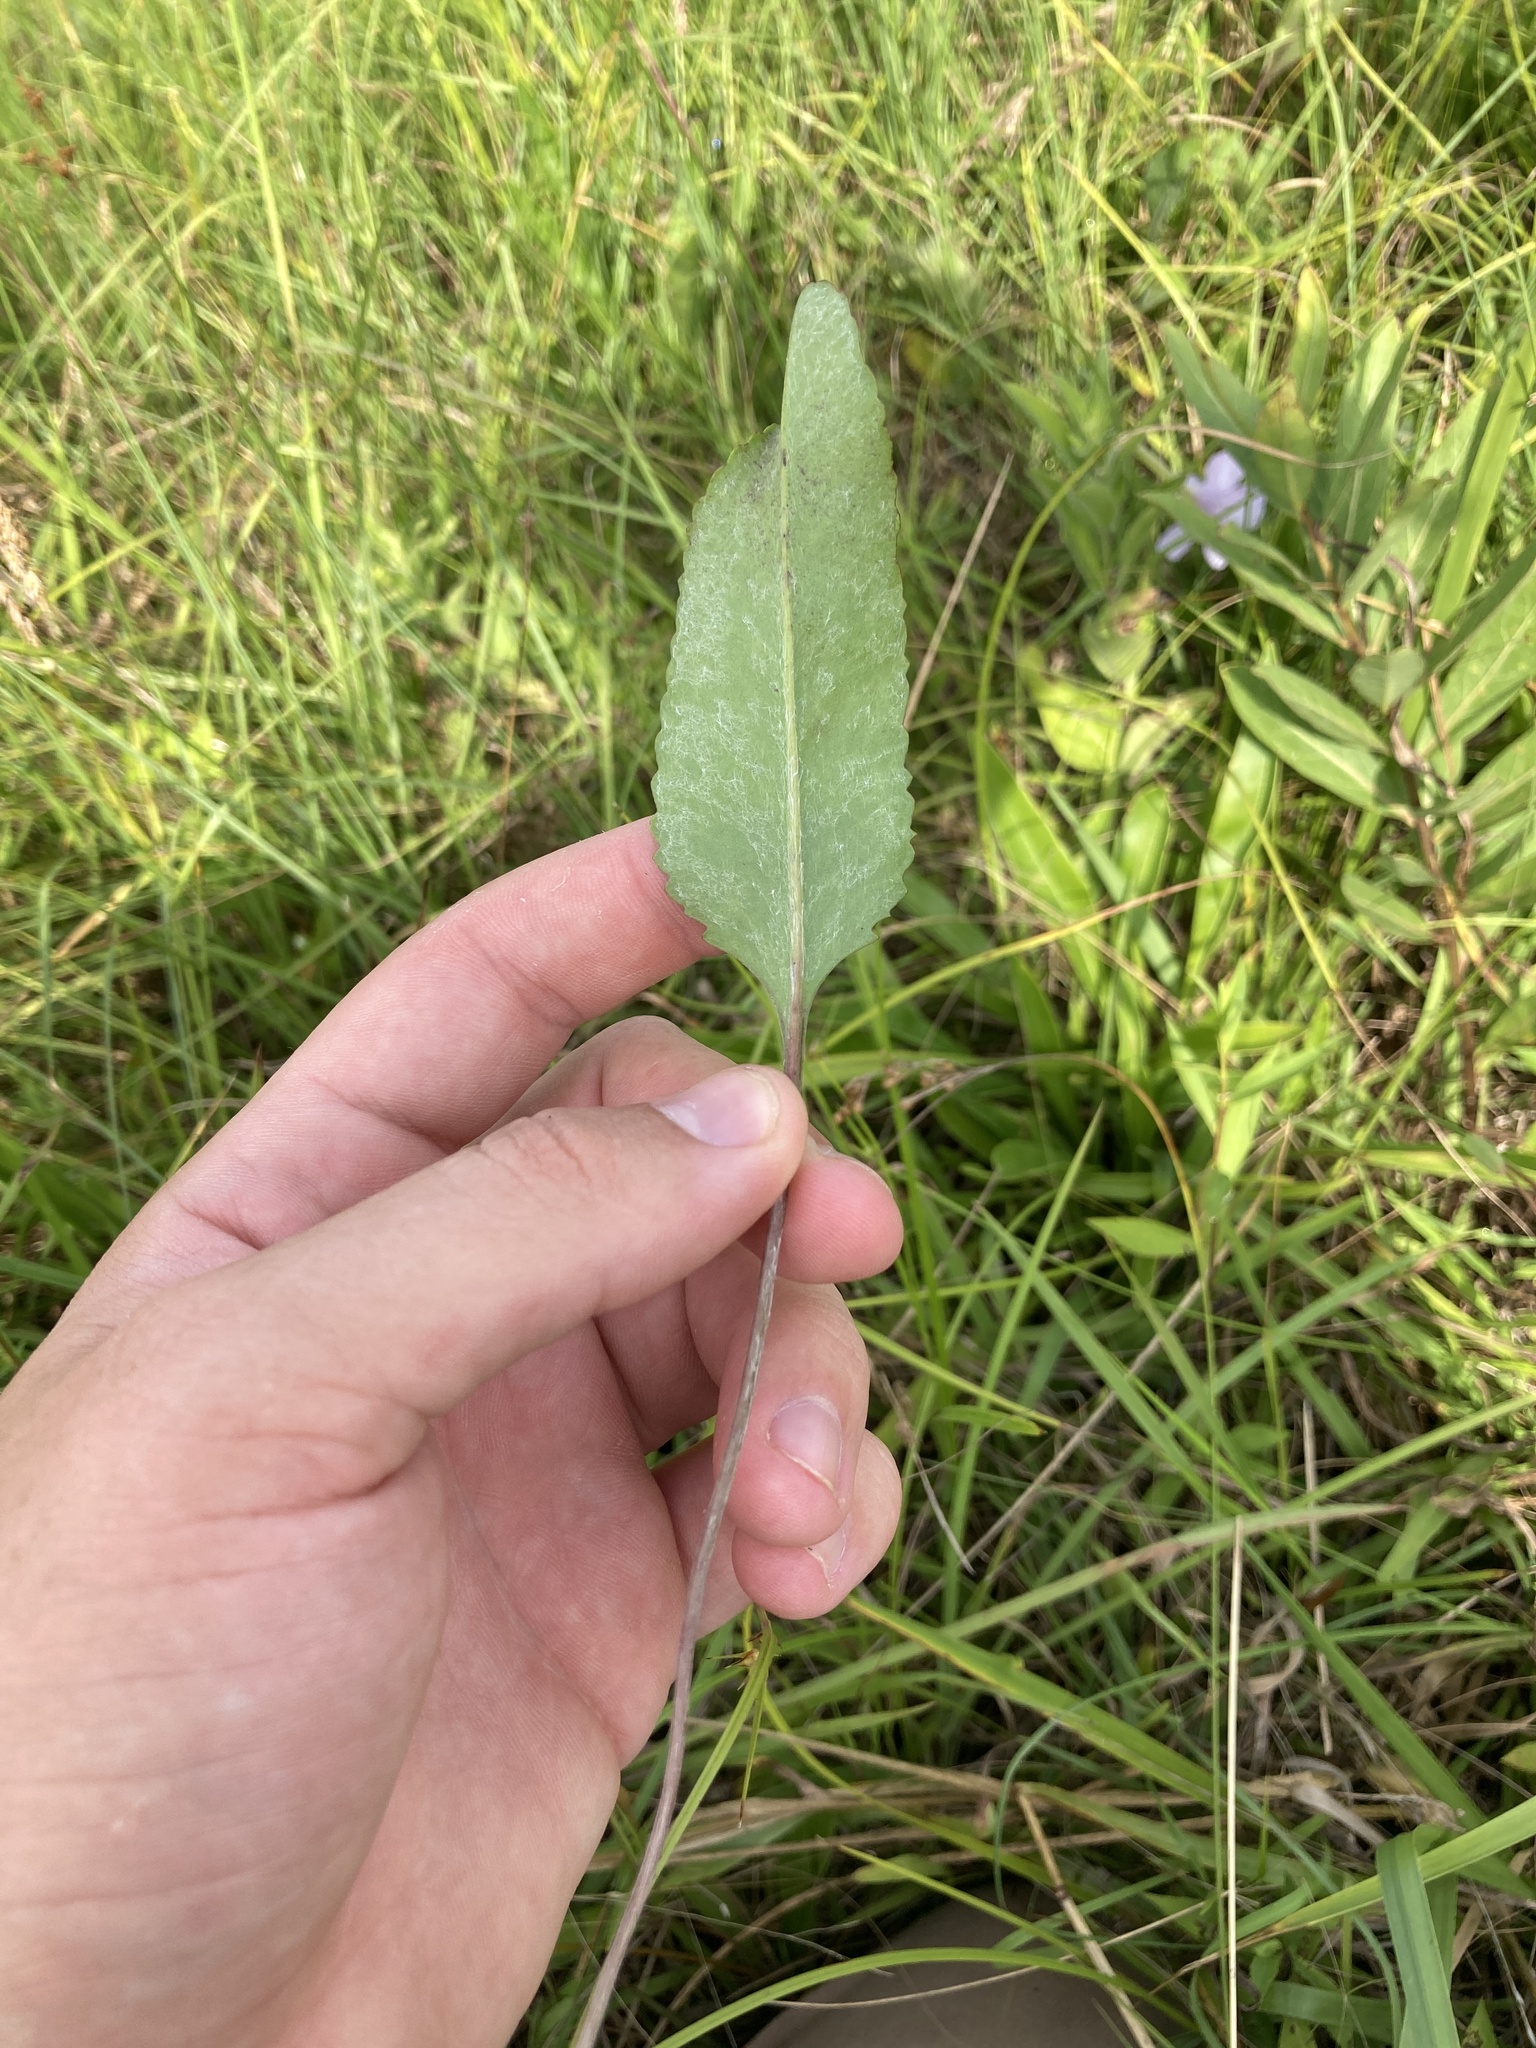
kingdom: Plantae
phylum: Tracheophyta
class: Magnoliopsida
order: Asterales
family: Asteraceae
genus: Packera
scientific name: Packera dubia
